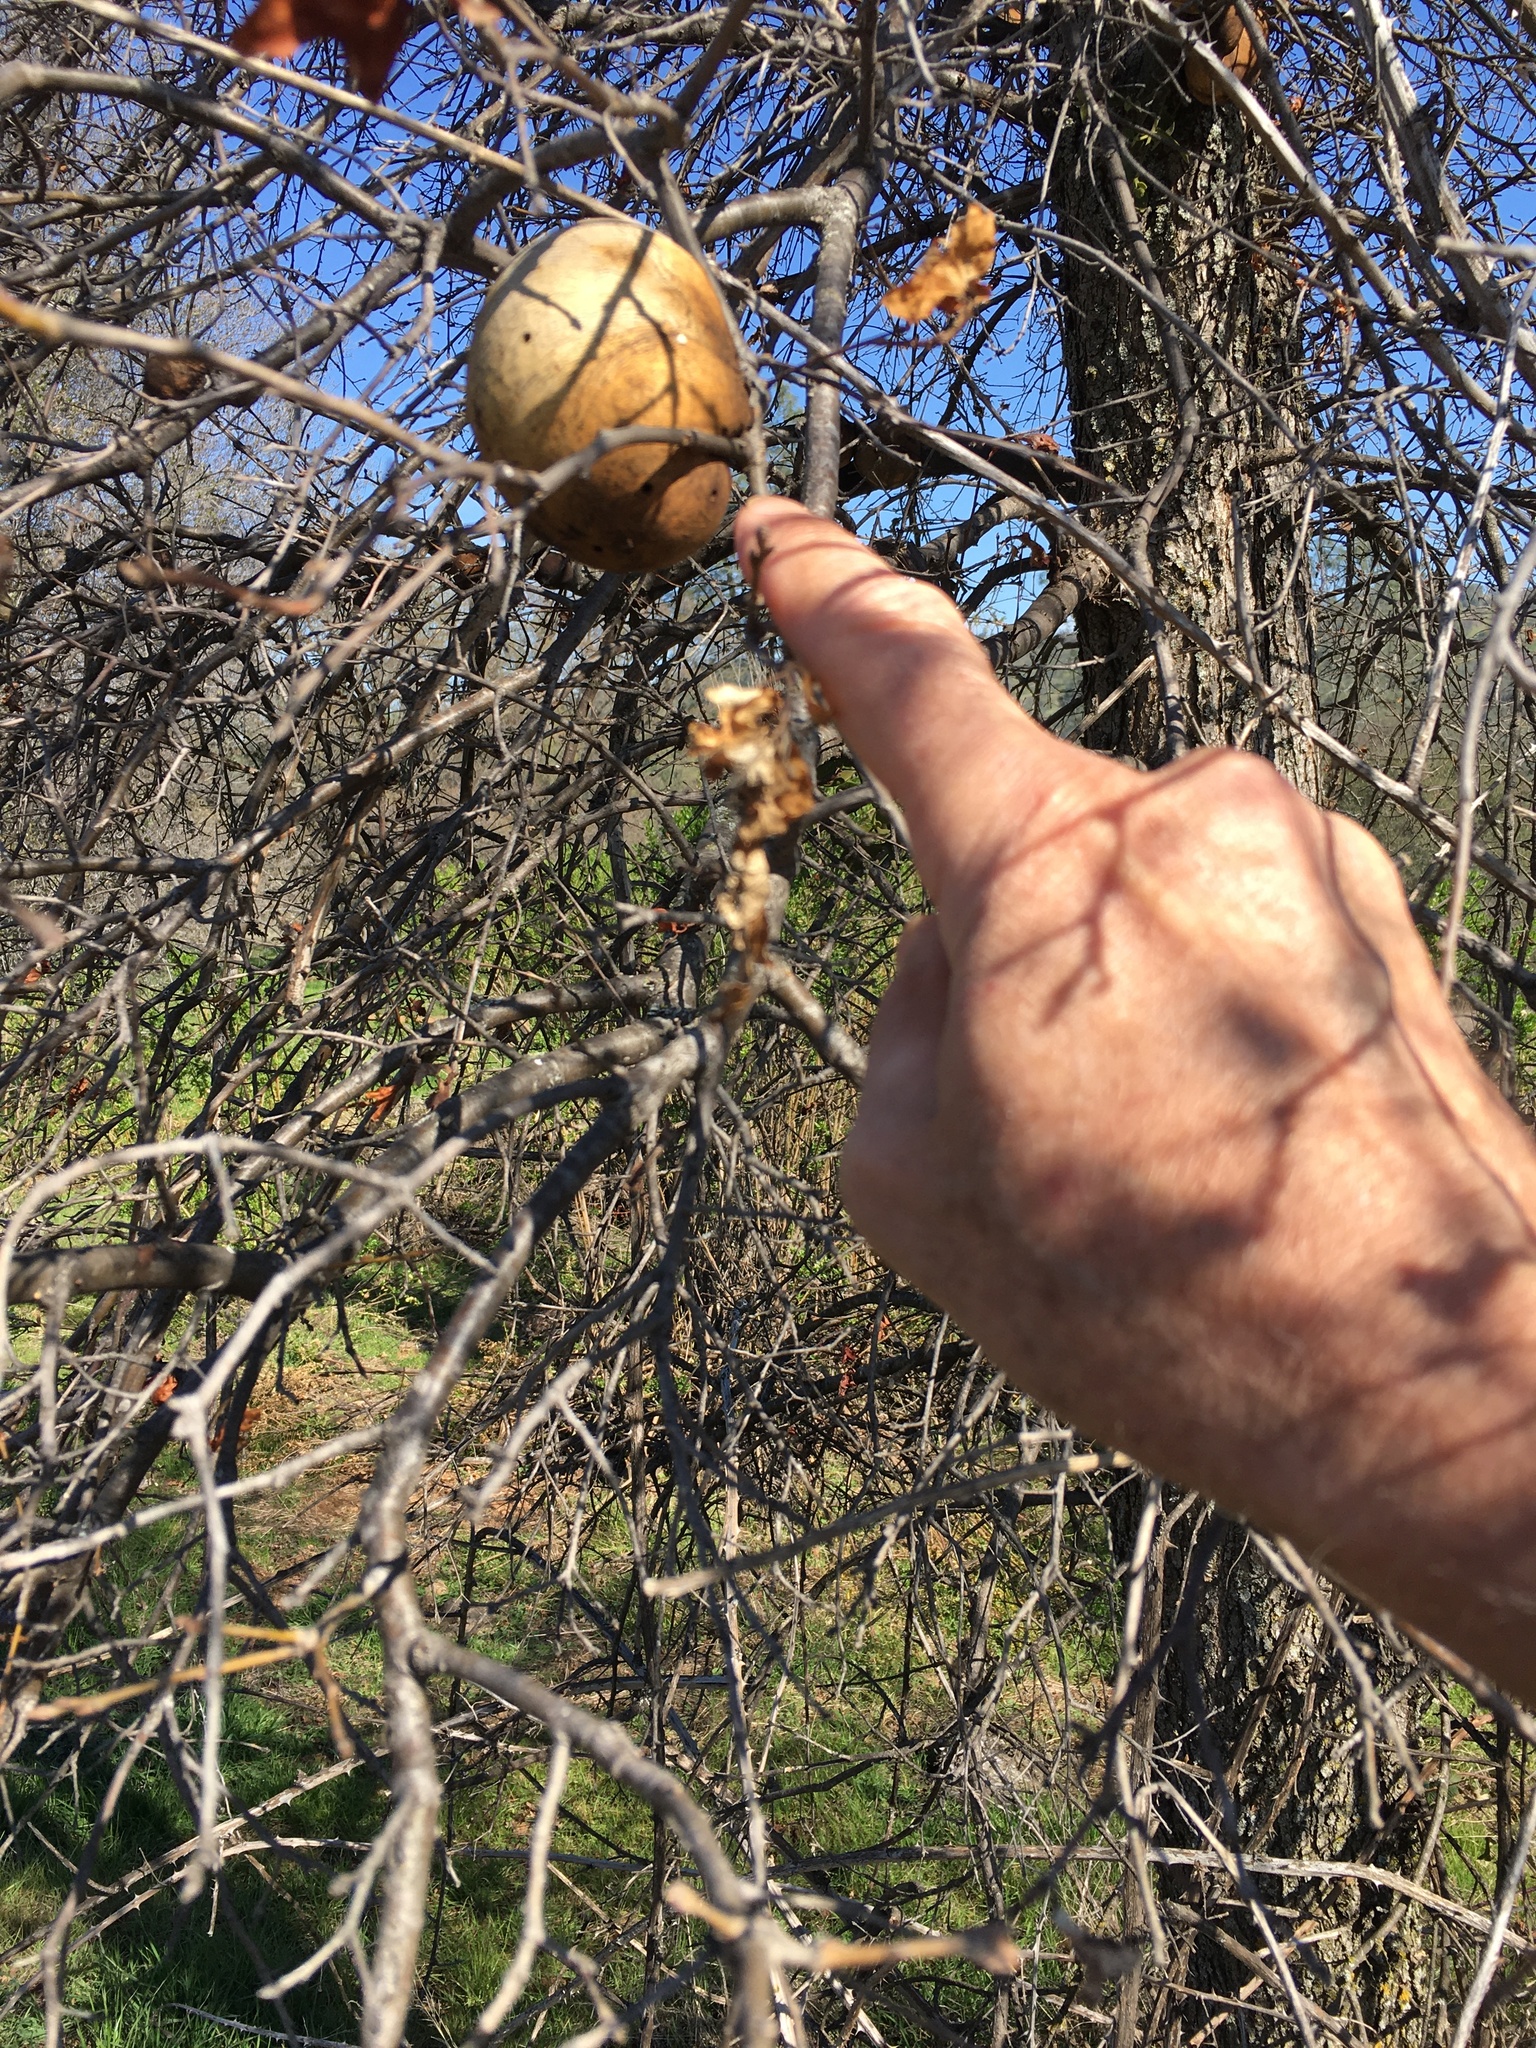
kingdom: Animalia
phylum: Arthropoda
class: Insecta
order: Hymenoptera
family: Cynipidae
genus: Andricus
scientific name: Andricus quercuscalifornicus
